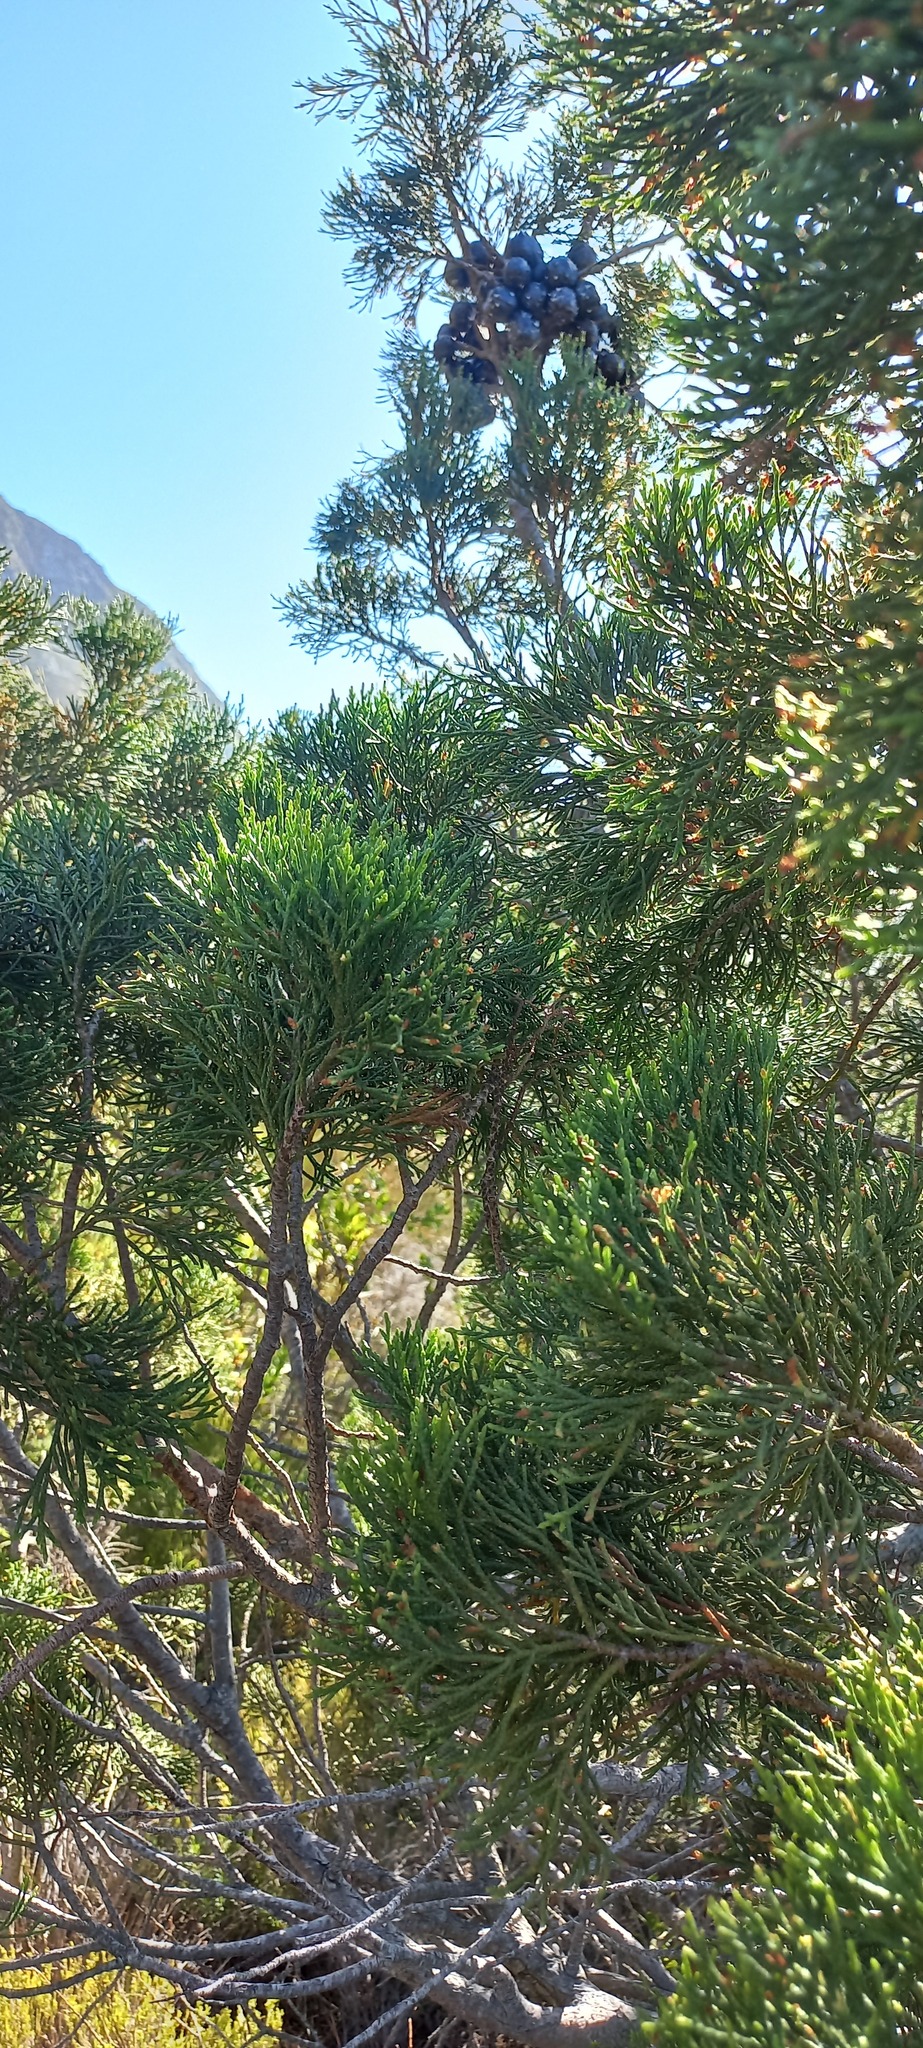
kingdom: Plantae
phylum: Tracheophyta
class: Pinopsida
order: Pinales
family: Cupressaceae
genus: Widdringtonia
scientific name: Widdringtonia nodiflora
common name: Cape cypress
